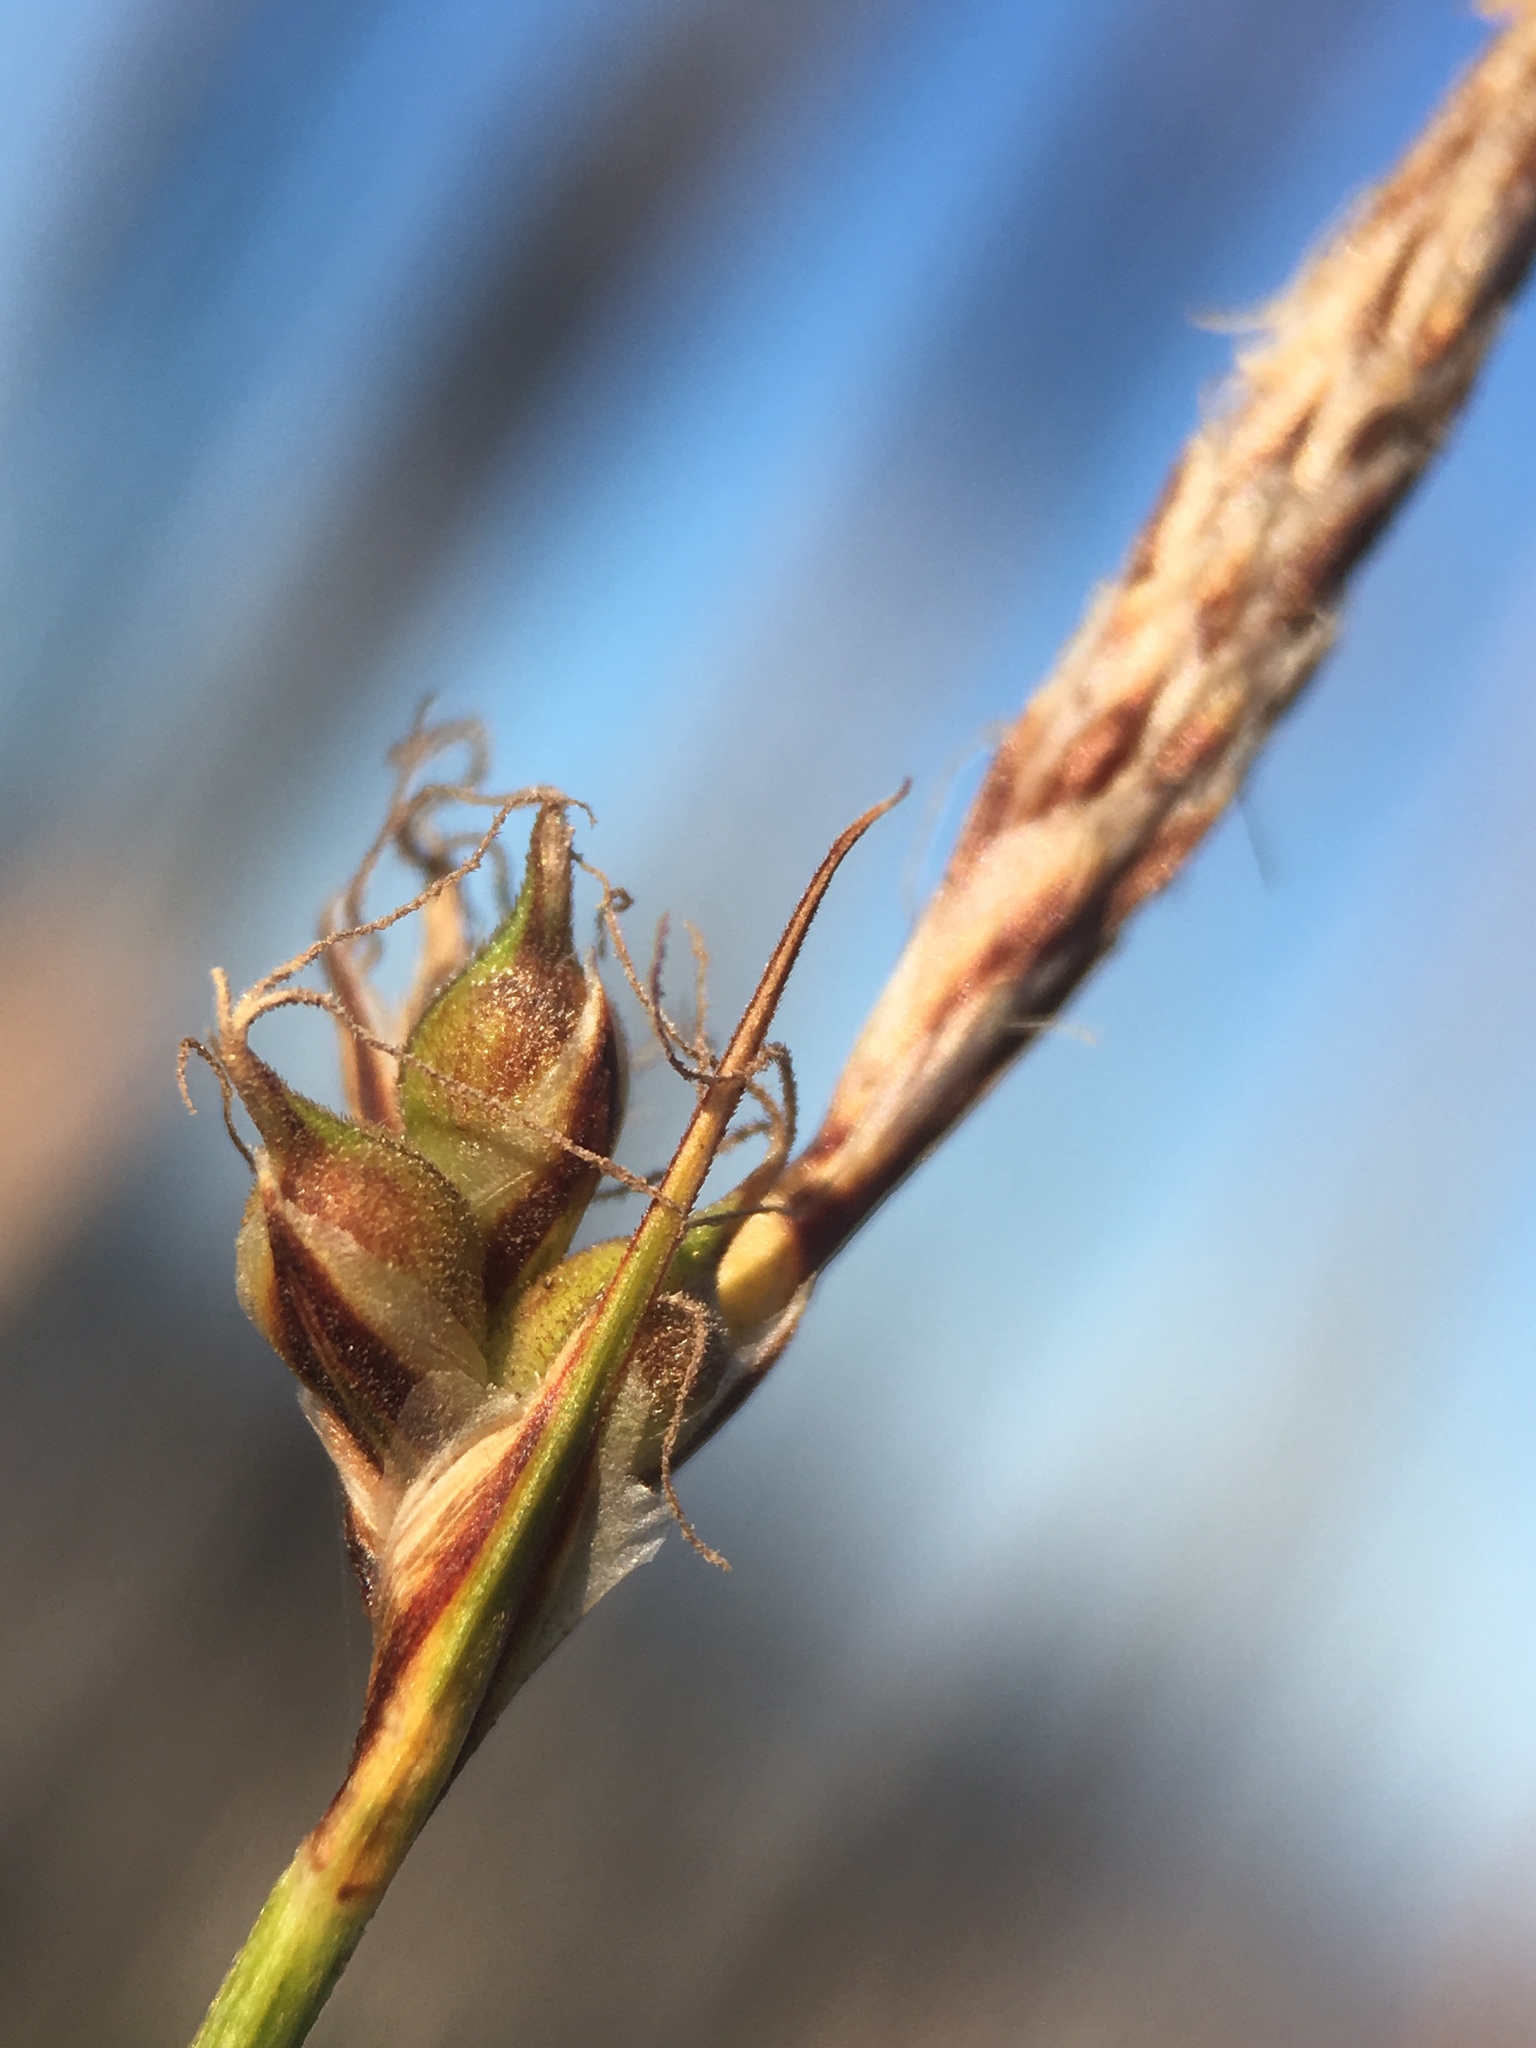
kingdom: Plantae
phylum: Tracheophyta
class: Liliopsida
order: Poales
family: Cyperaceae
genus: Carex
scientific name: Carex inops
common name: Long-stolon sedge
